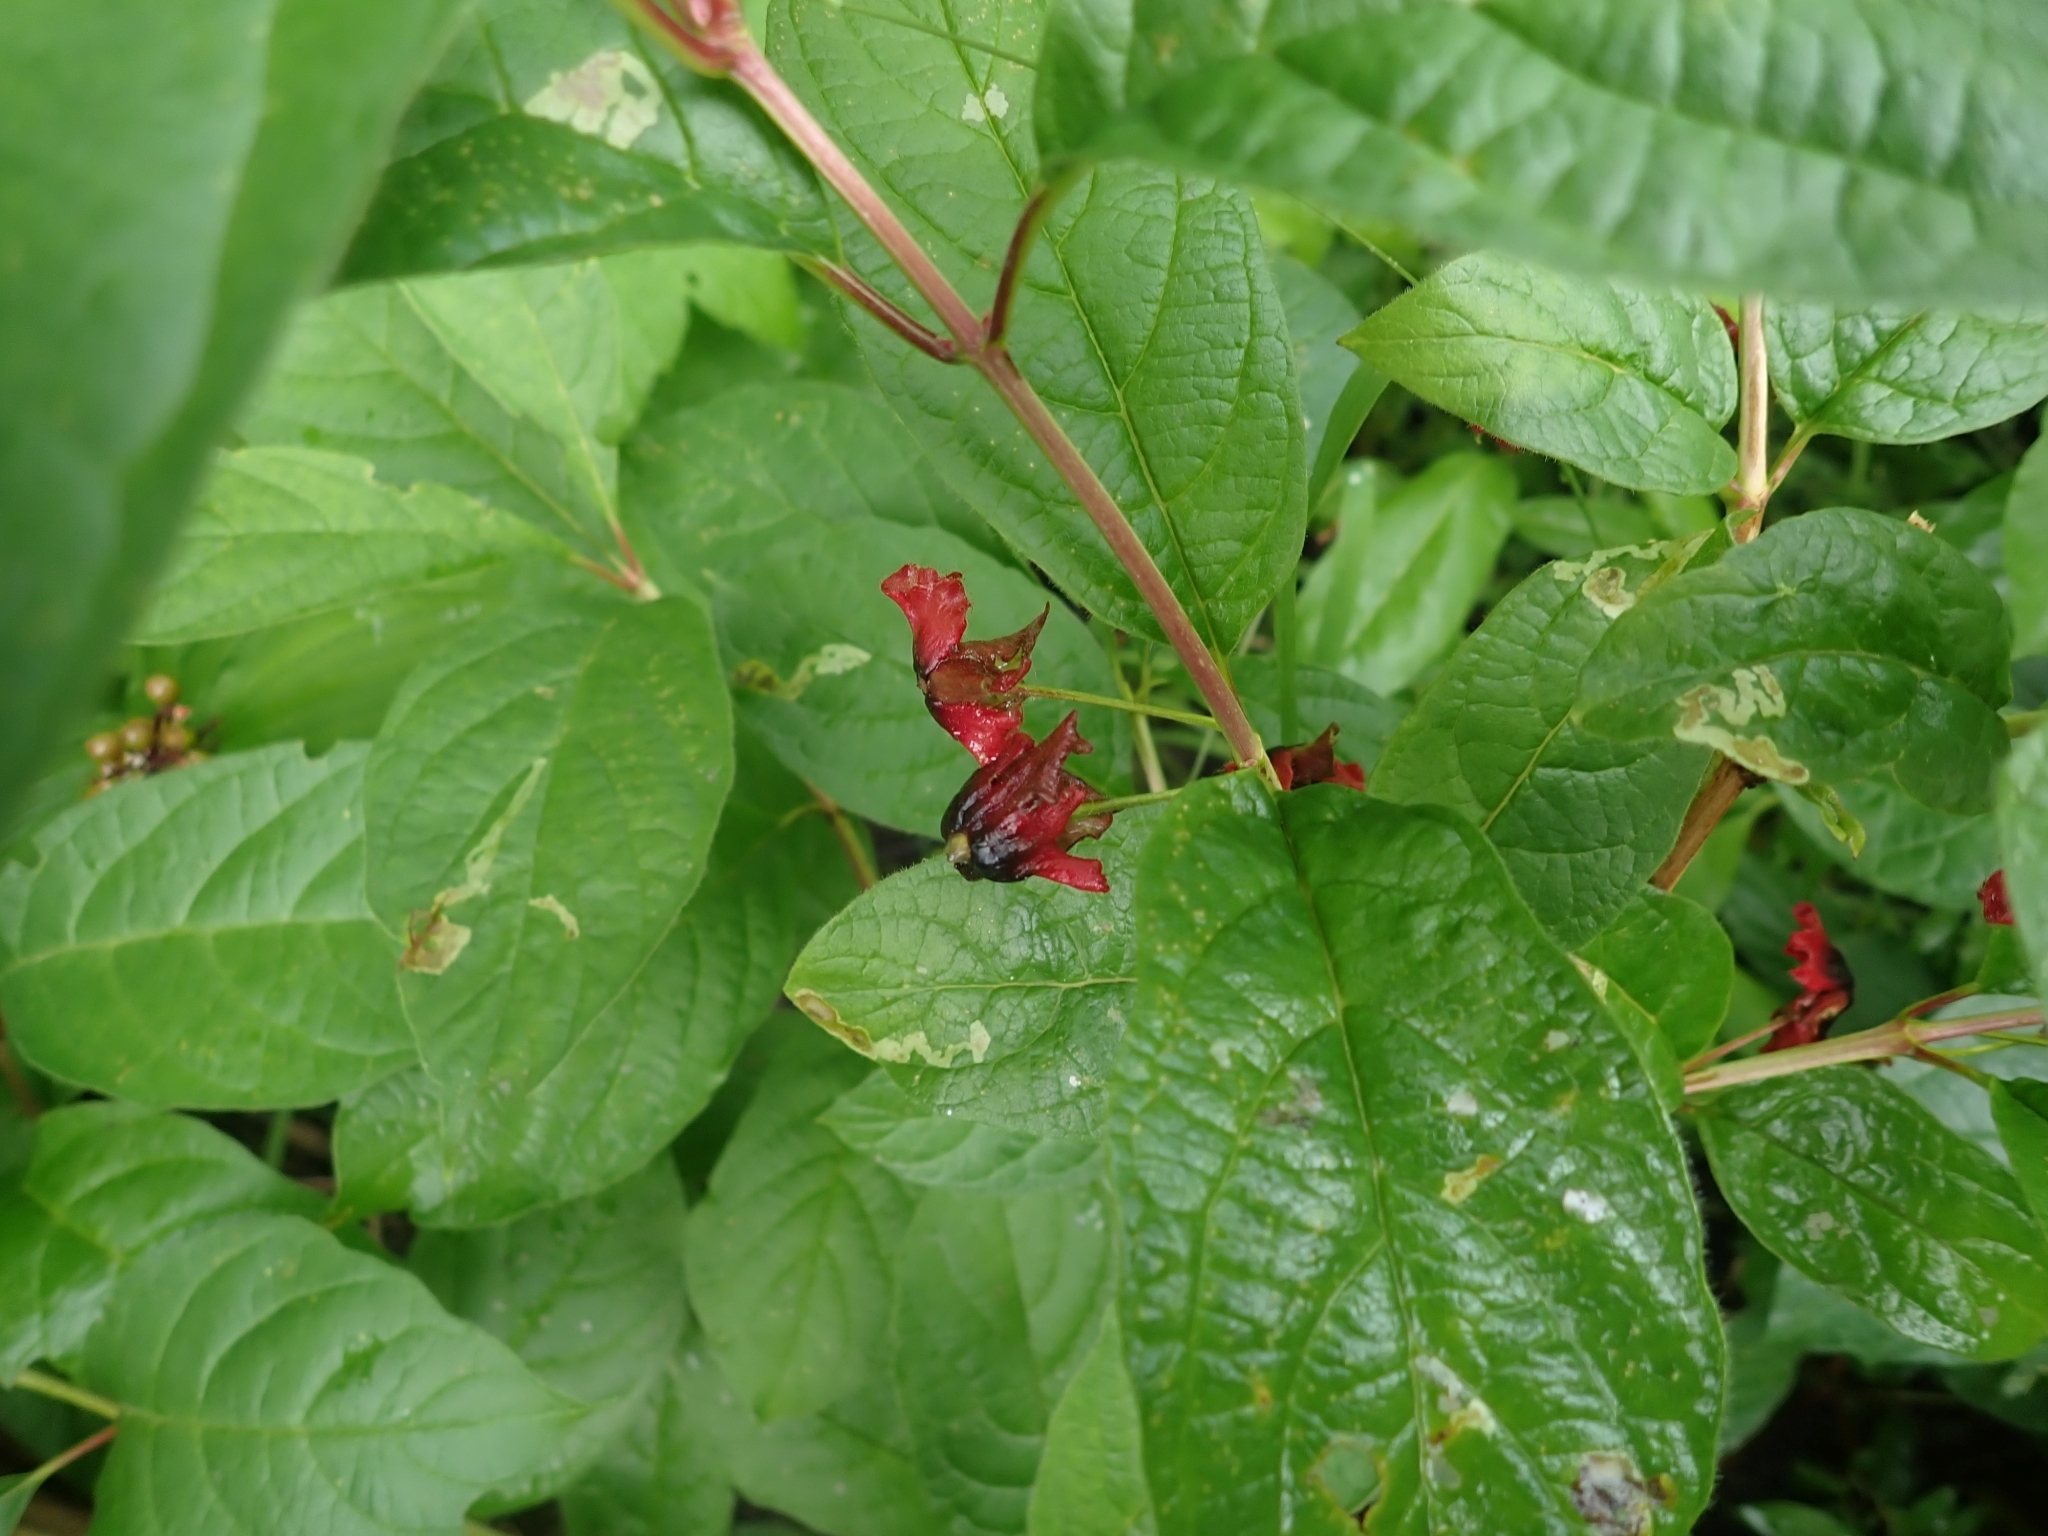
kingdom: Plantae
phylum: Tracheophyta
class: Magnoliopsida
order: Dipsacales
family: Caprifoliaceae
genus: Lonicera
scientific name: Lonicera involucrata
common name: Californian honeysuckle
